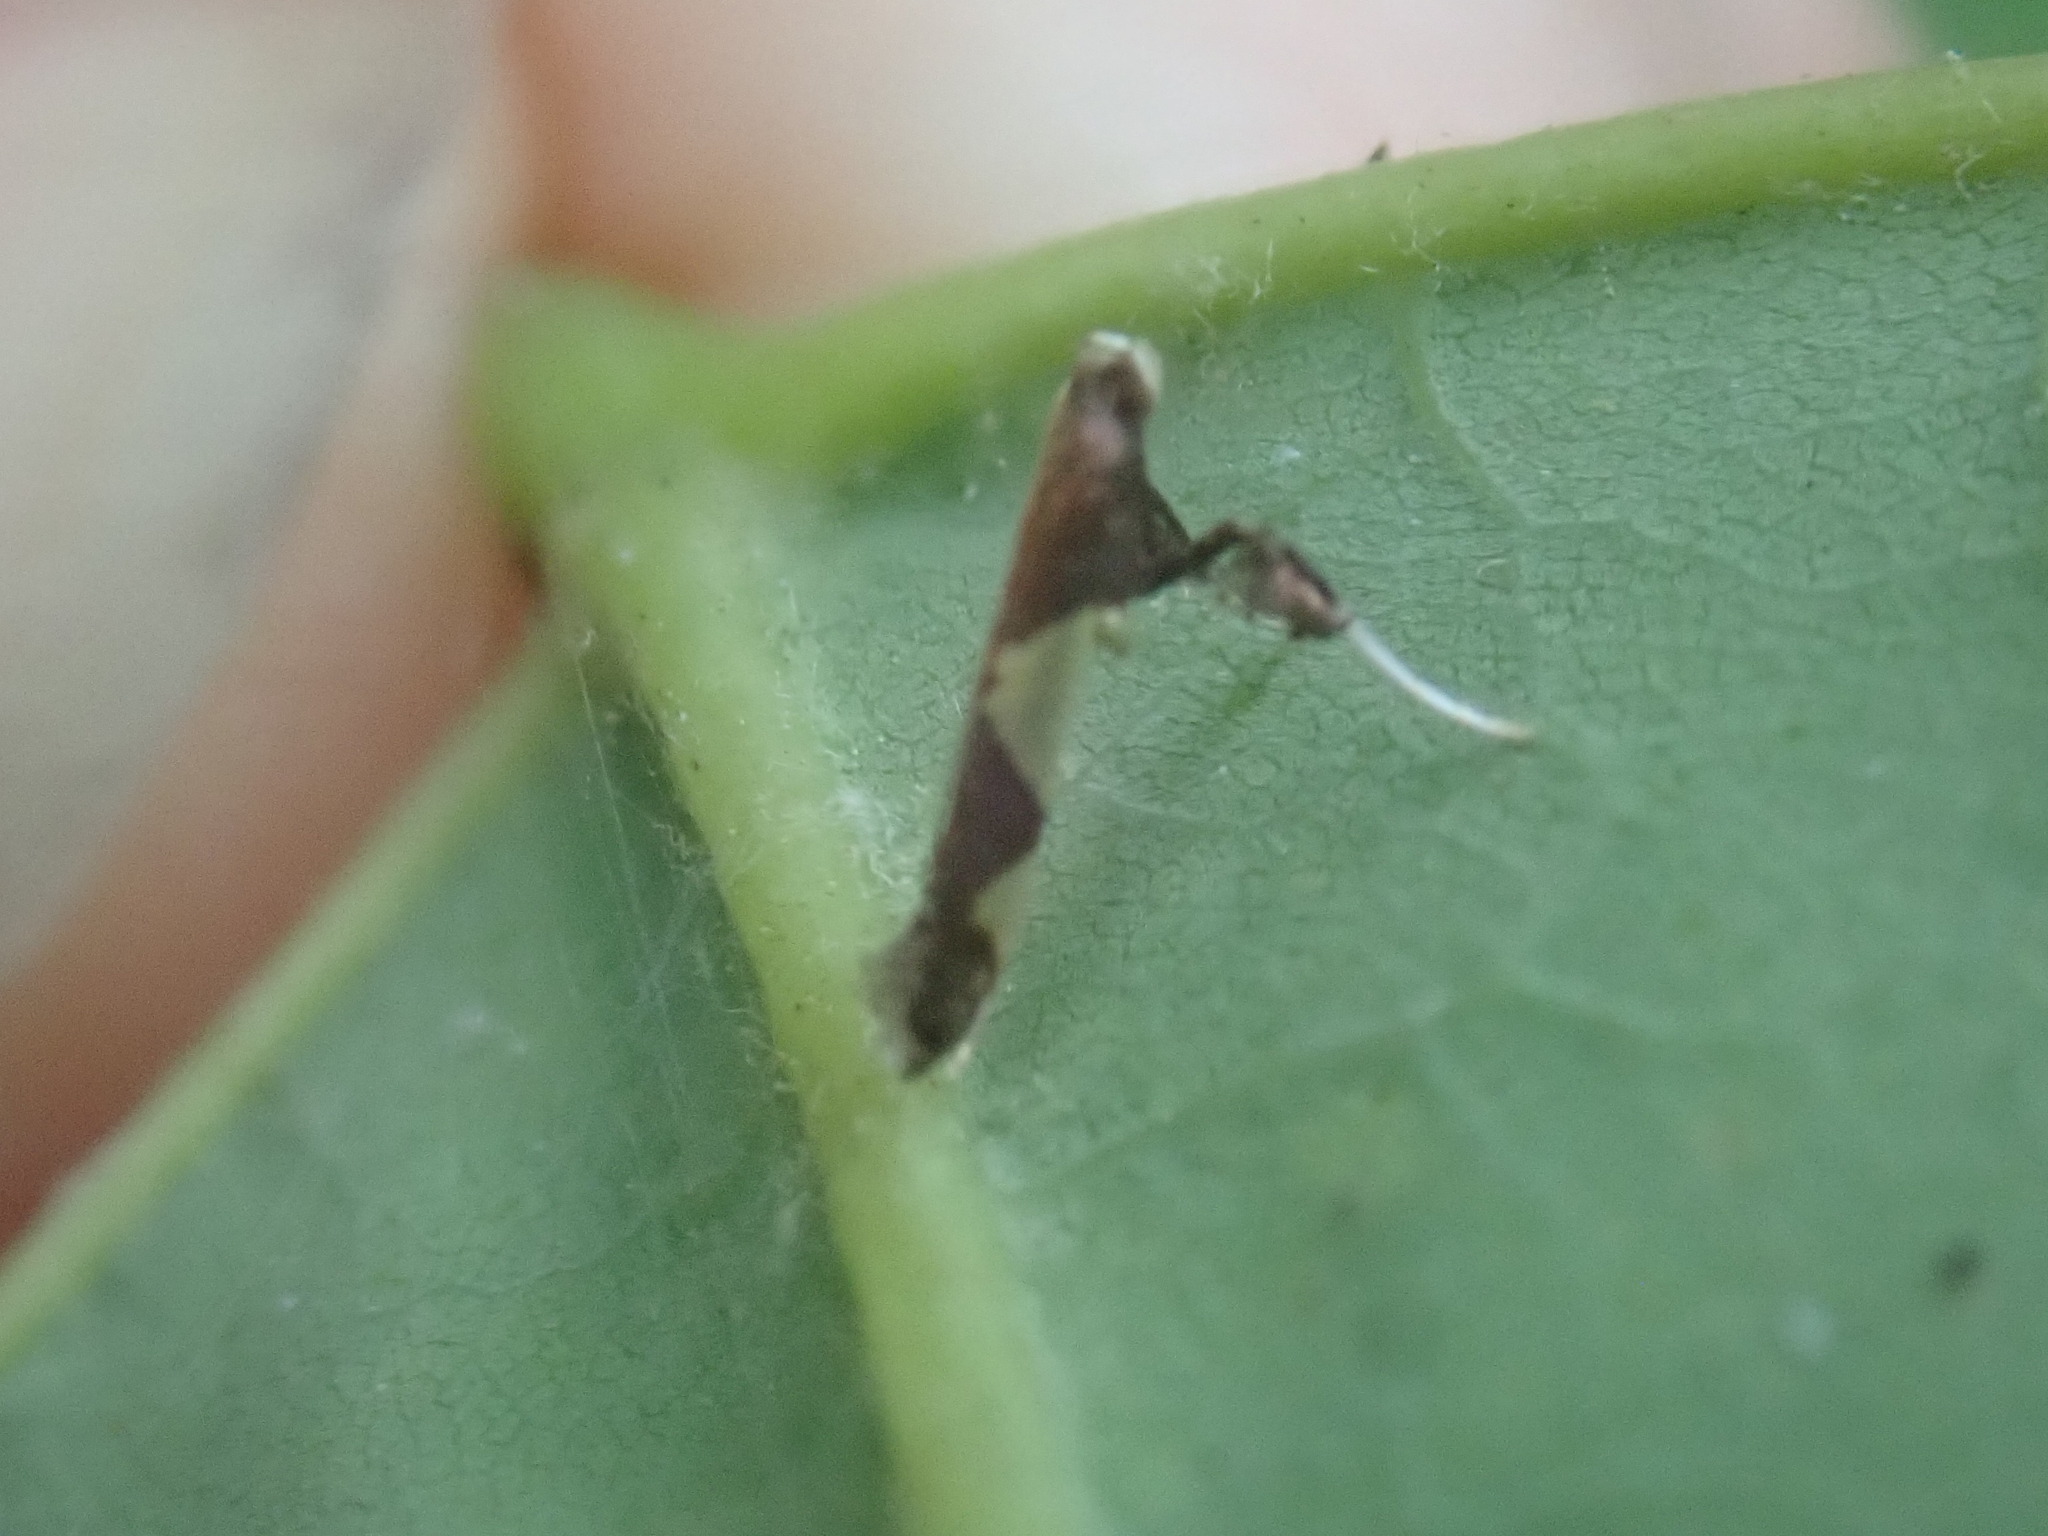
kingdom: Animalia
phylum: Arthropoda
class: Insecta
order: Lepidoptera
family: Gracillariidae
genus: Caloptilia
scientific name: Caloptilia bimaculatella
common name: Maple caloptilia moth
